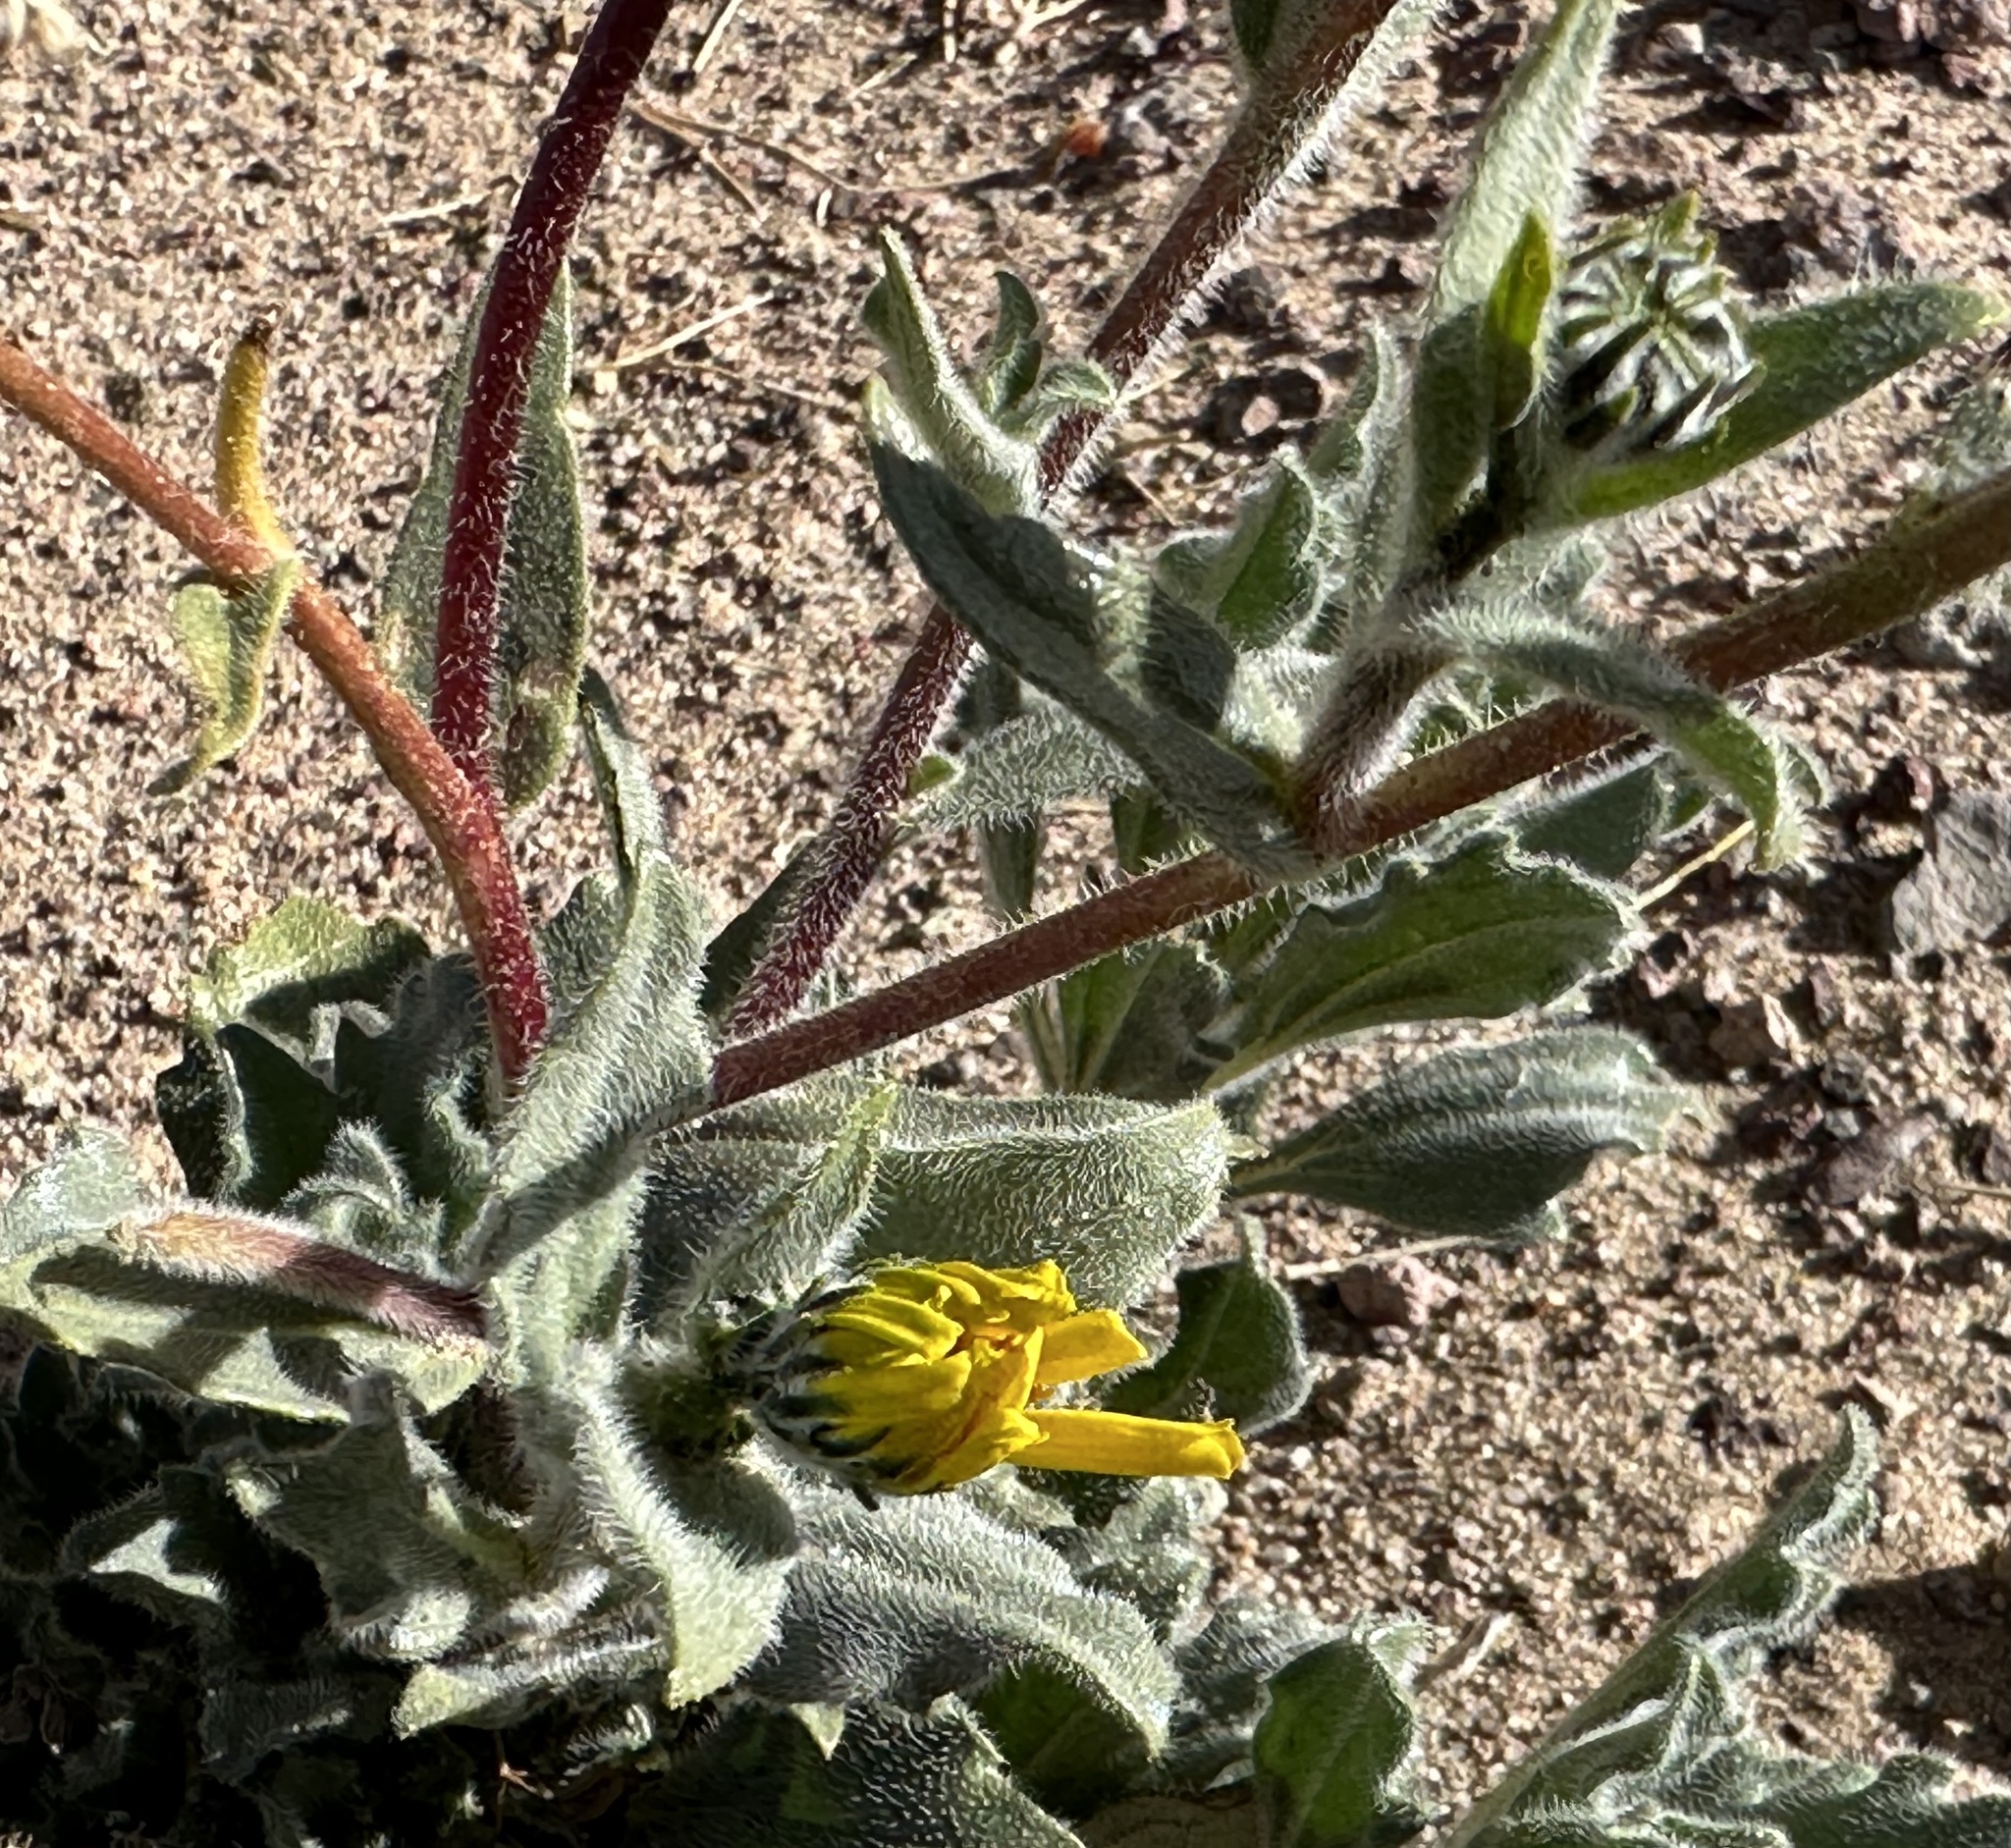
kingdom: Plantae
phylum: Tracheophyta
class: Magnoliopsida
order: Asterales
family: Asteraceae
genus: Geraea
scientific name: Geraea canescens
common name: Desert-gold
